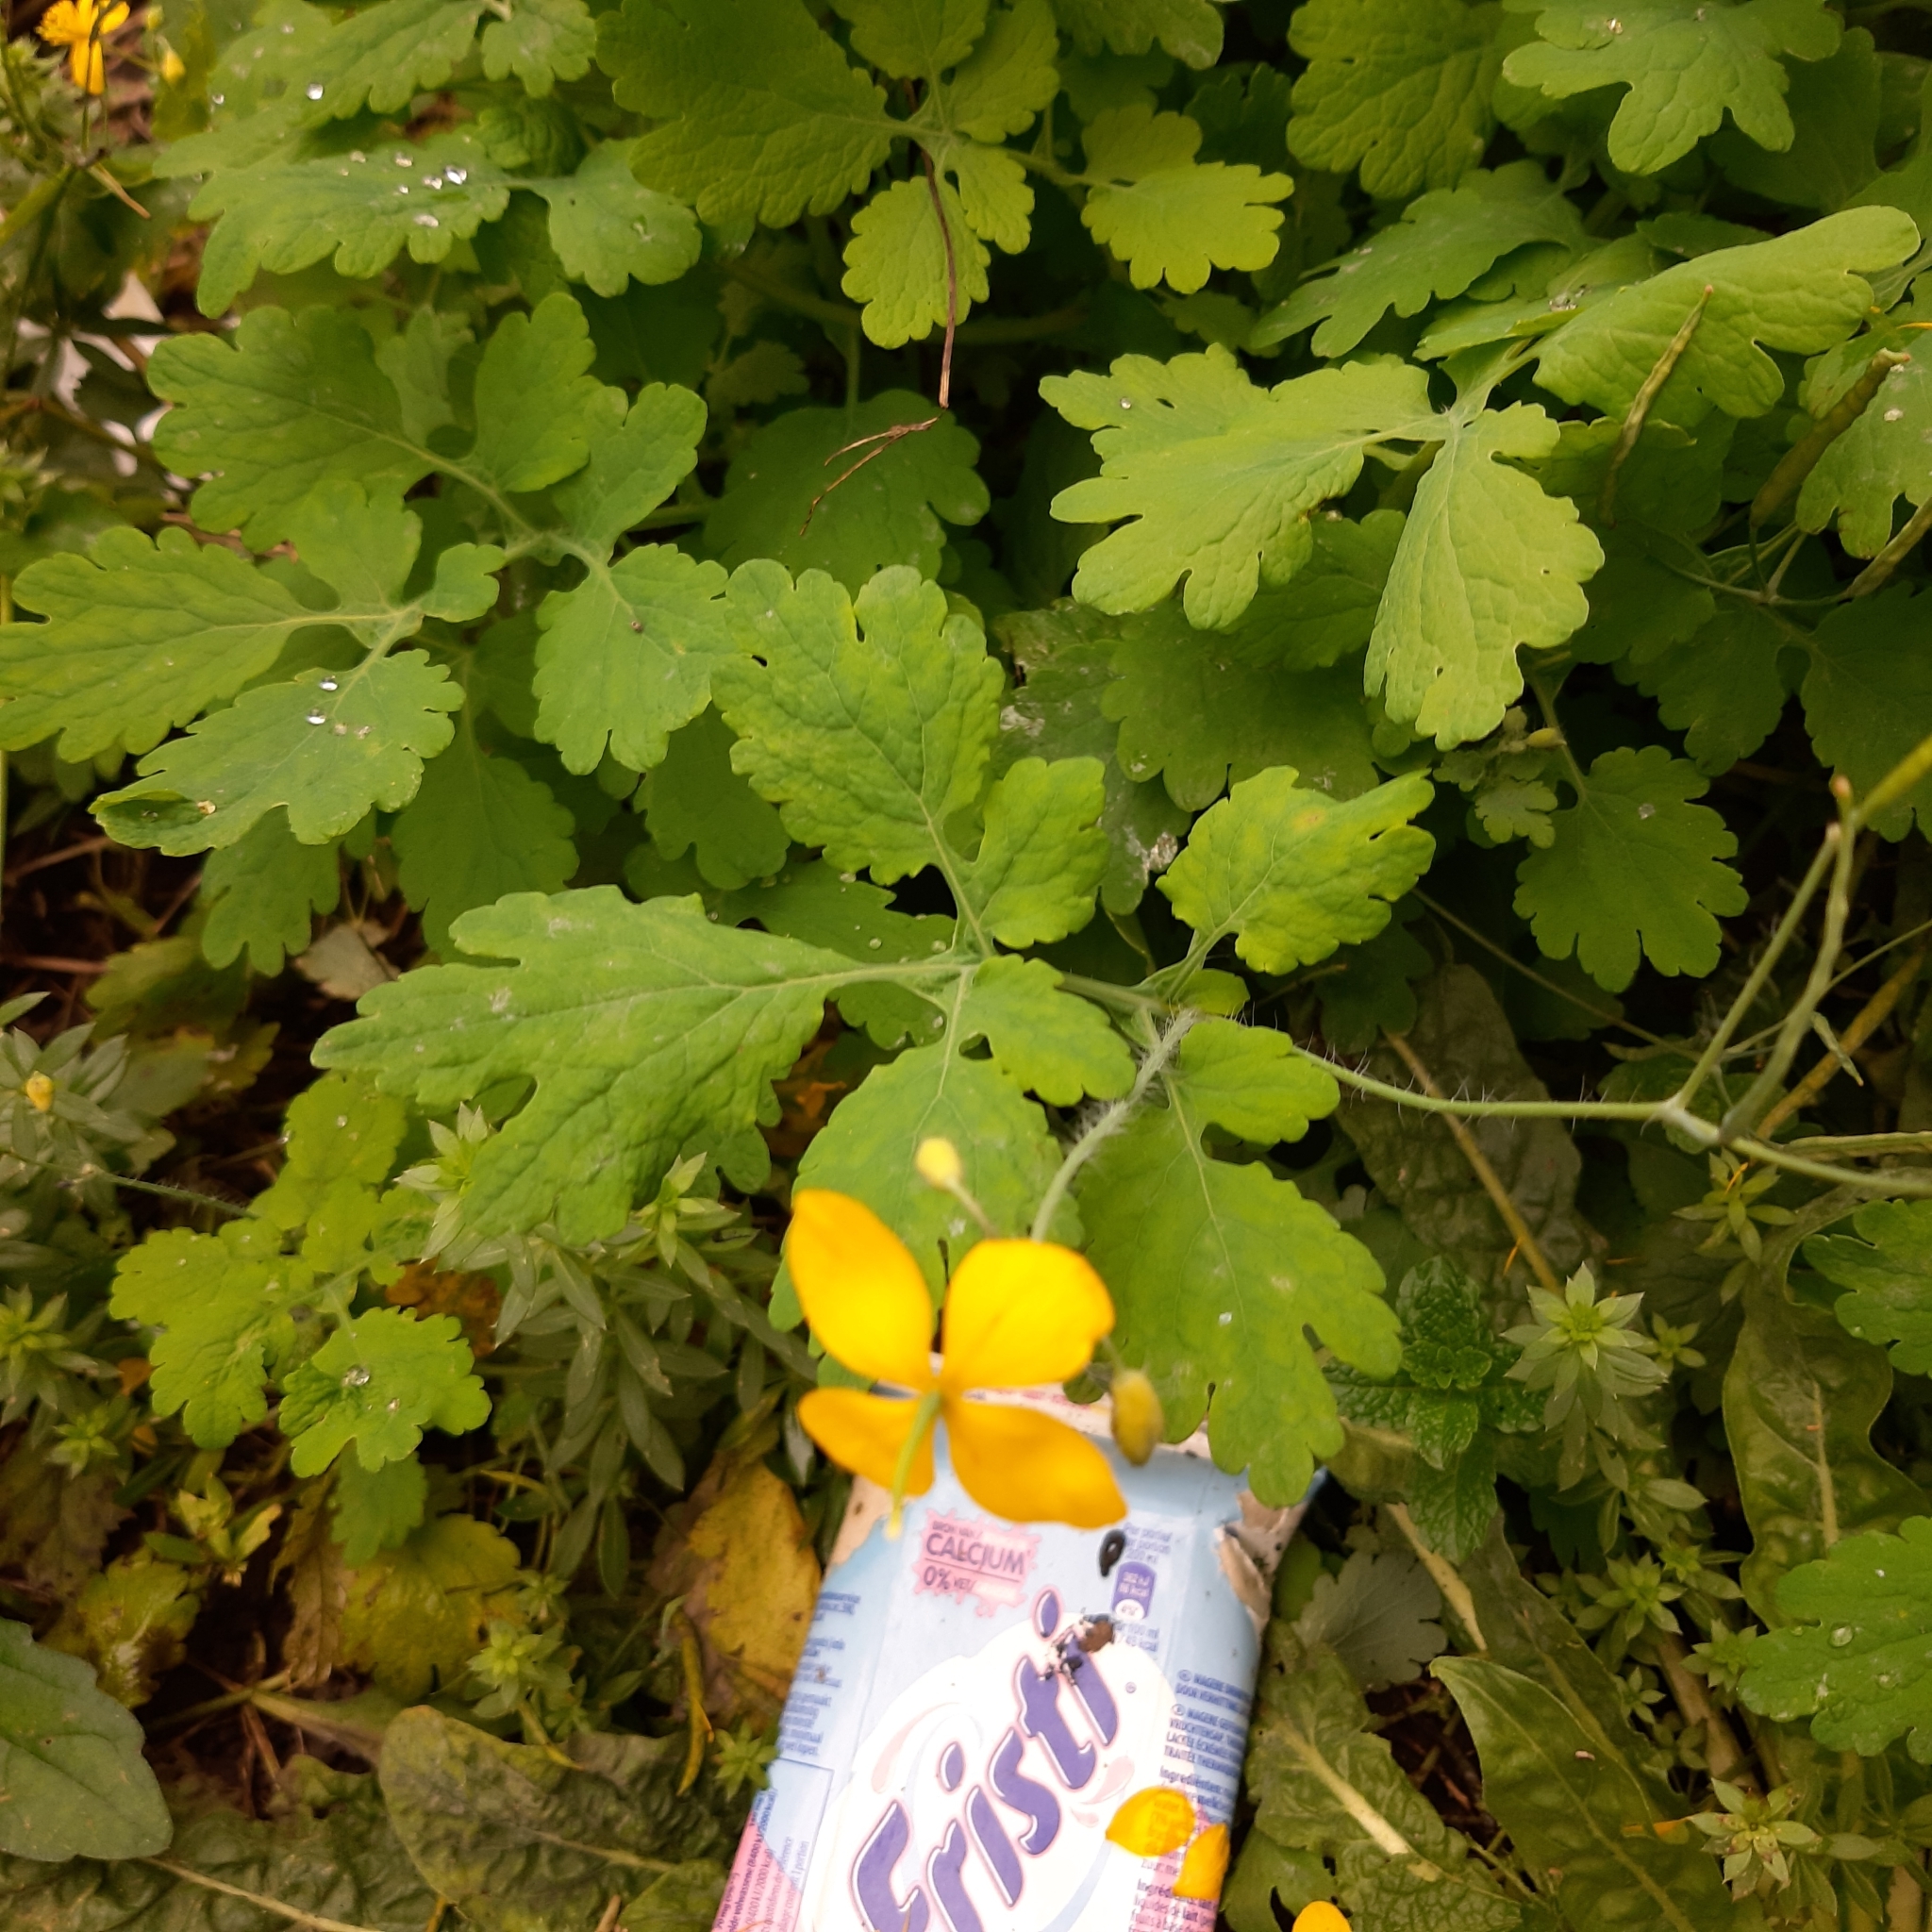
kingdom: Plantae
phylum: Tracheophyta
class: Magnoliopsida
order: Ranunculales
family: Papaveraceae
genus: Chelidonium
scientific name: Chelidonium majus
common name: Greater celandine
